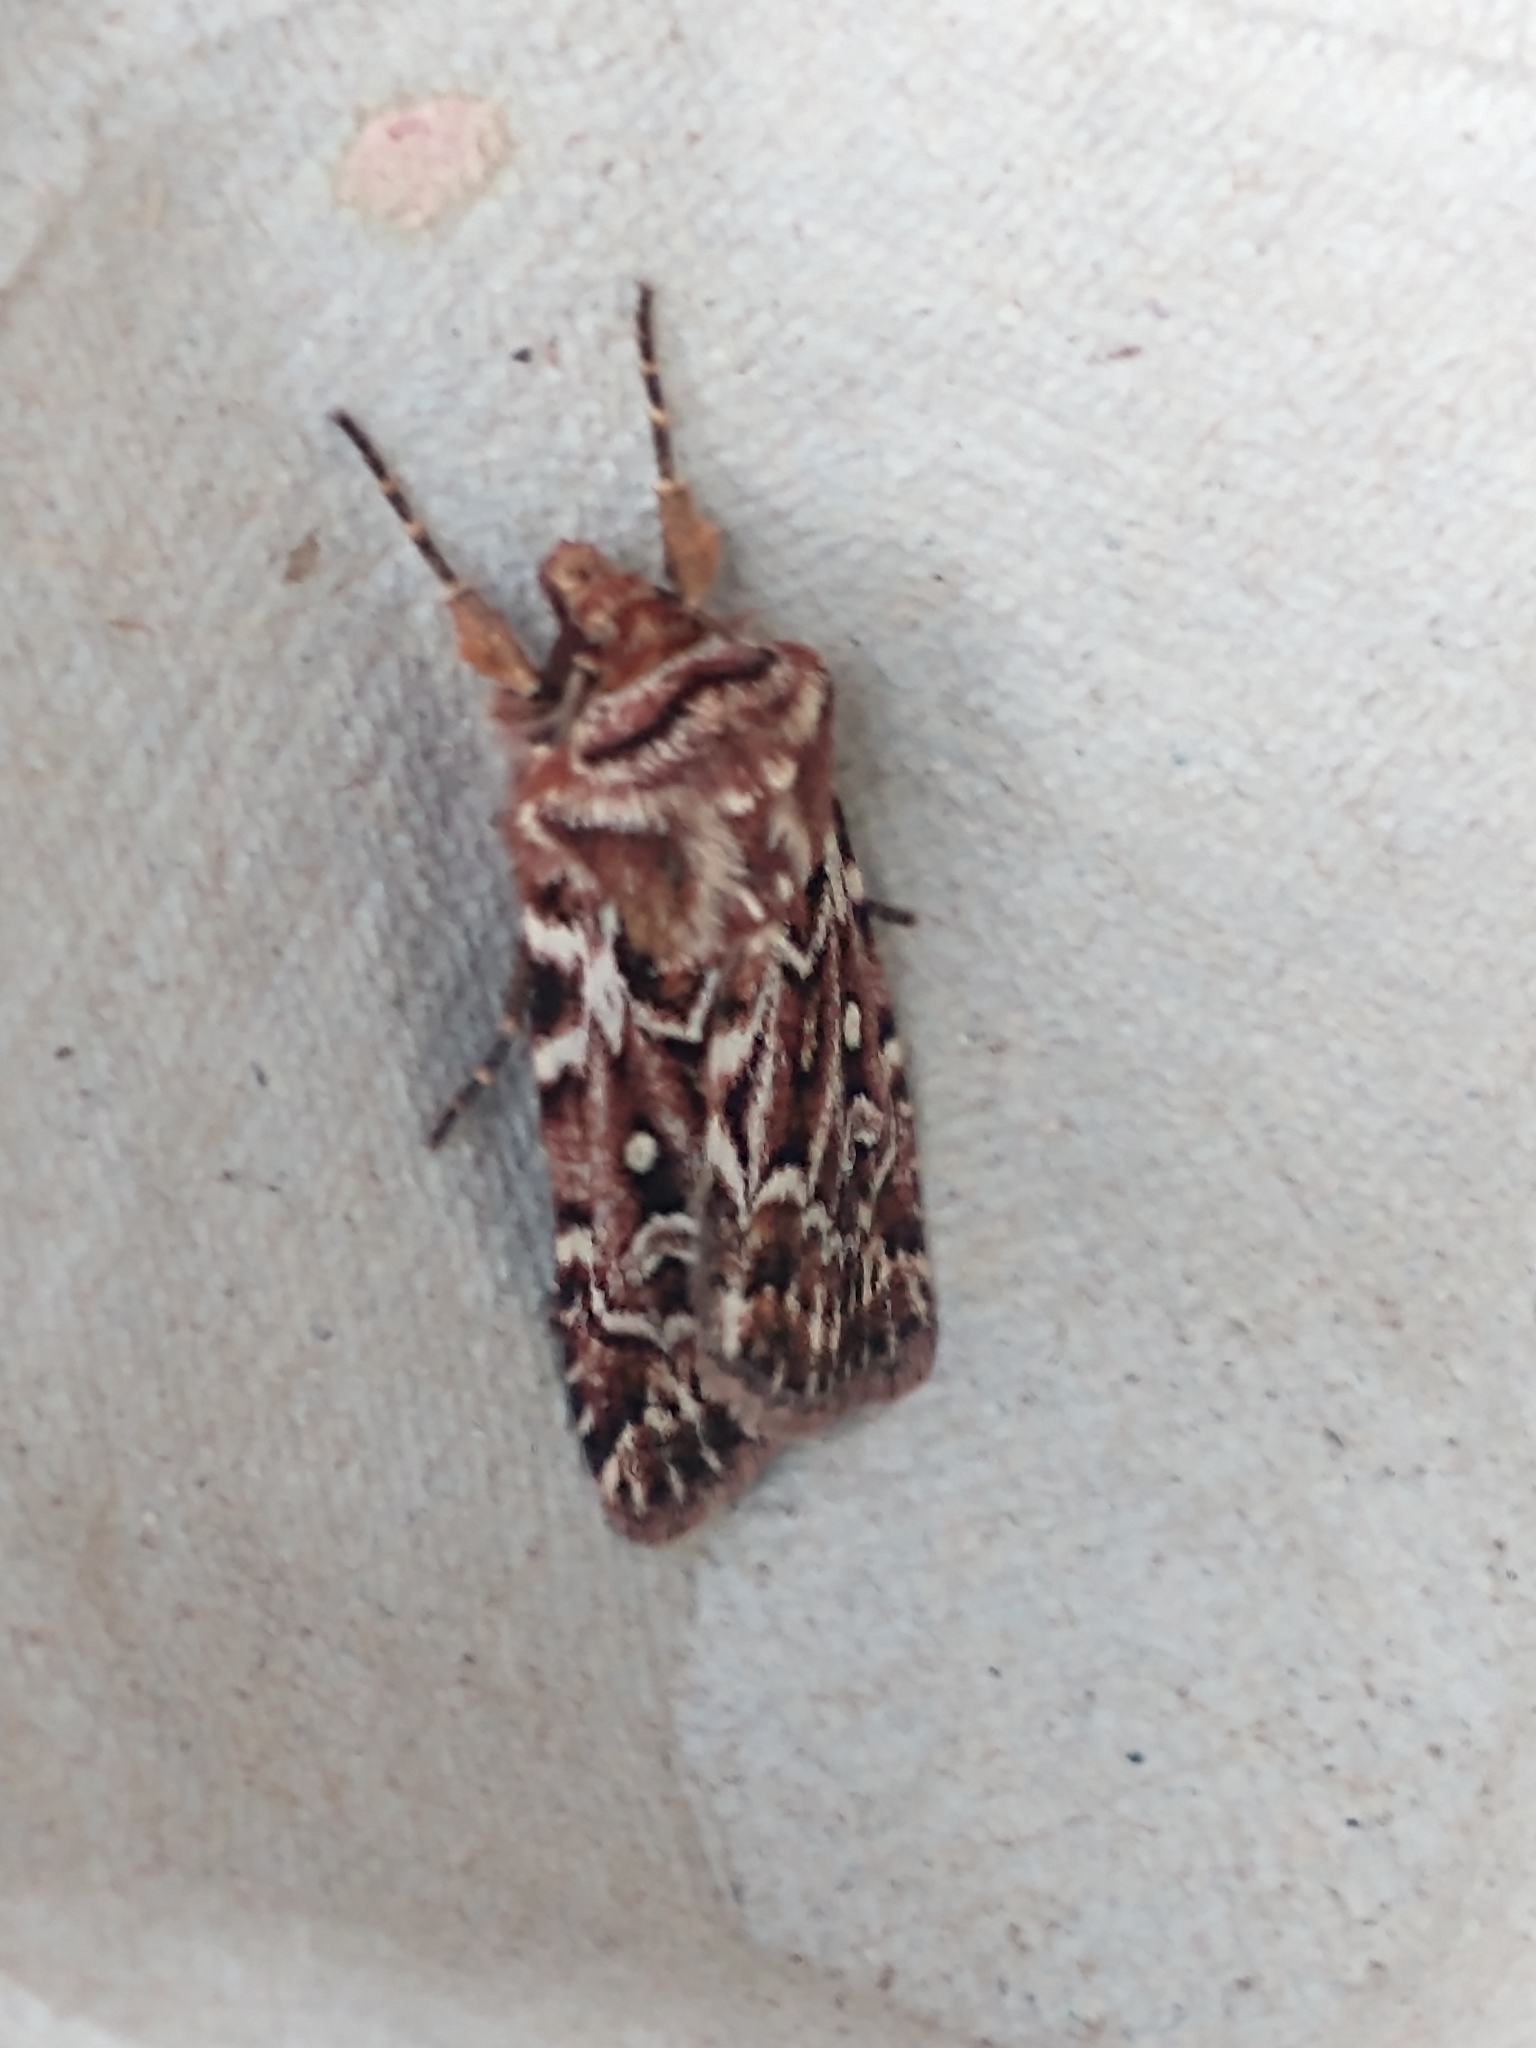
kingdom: Animalia
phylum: Arthropoda
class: Insecta
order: Lepidoptera
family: Noctuidae
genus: Lycophotia
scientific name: Lycophotia porphyrea
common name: True lover's knot
